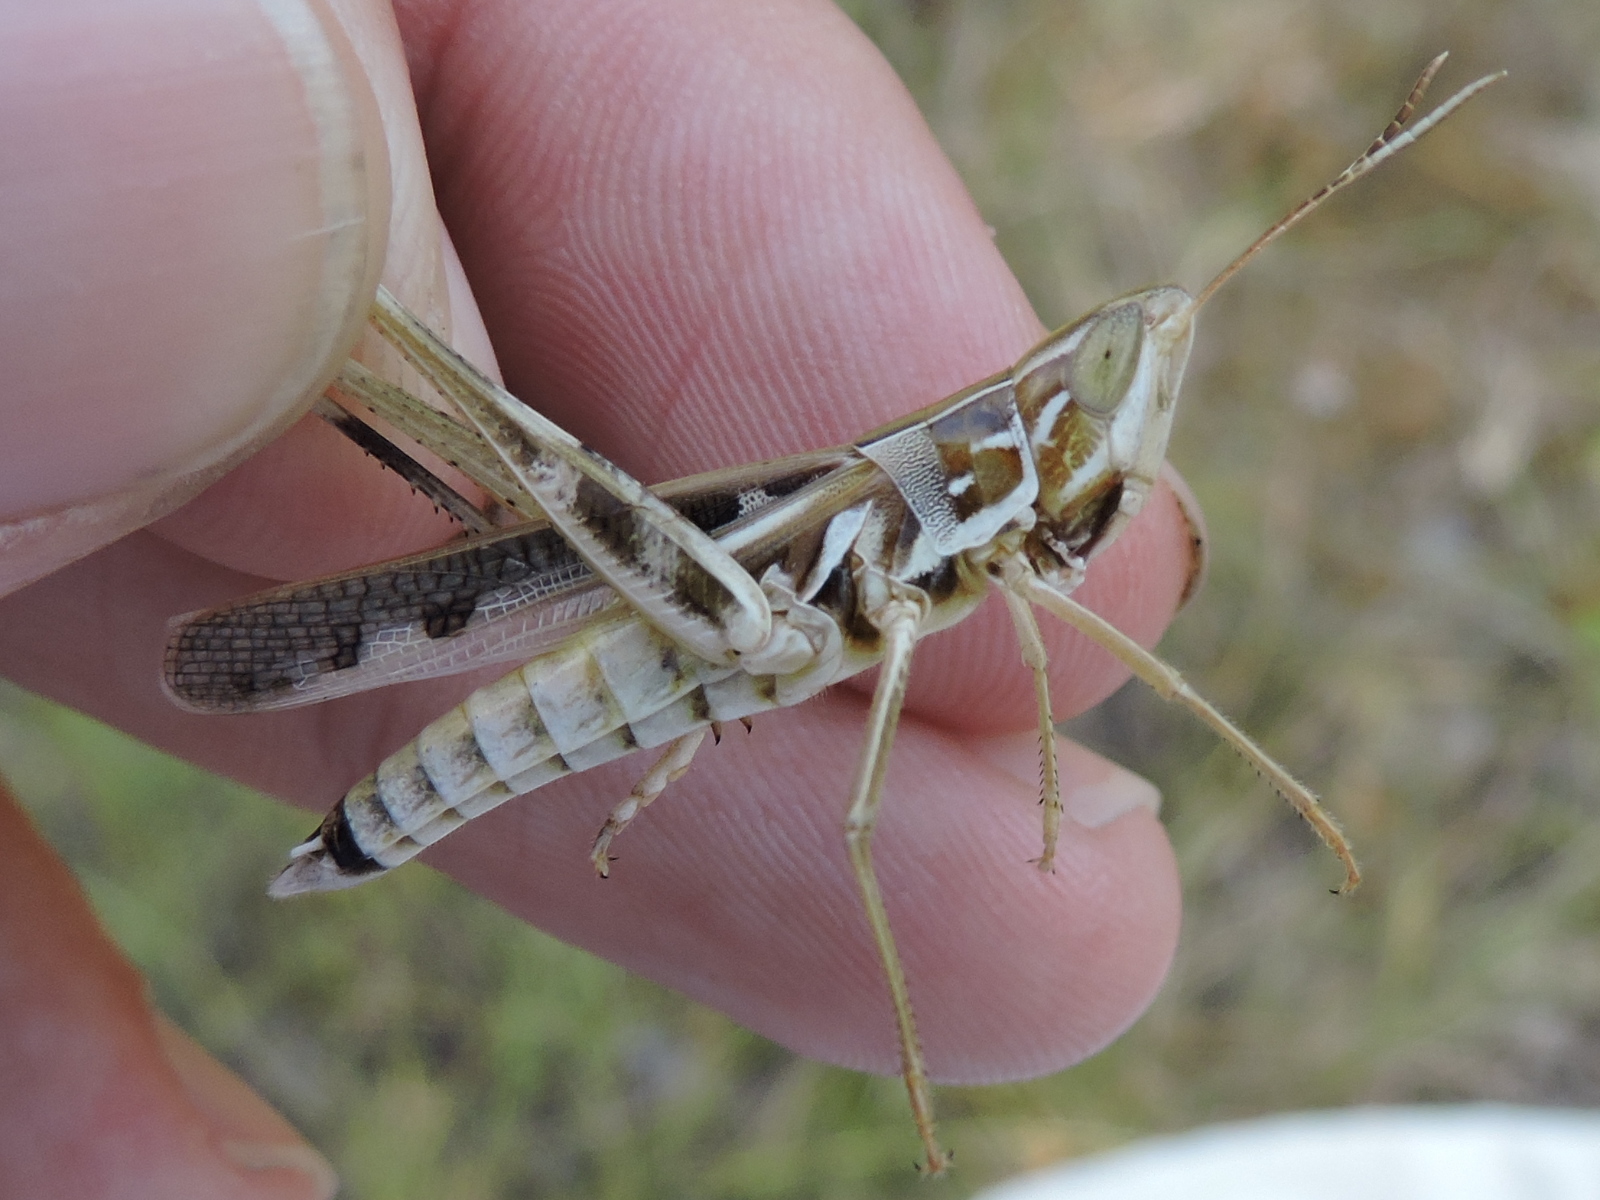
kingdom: Animalia
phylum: Arthropoda
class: Insecta
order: Orthoptera
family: Acrididae
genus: Syrbula
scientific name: Syrbula admirabilis
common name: Handsome grasshopper
